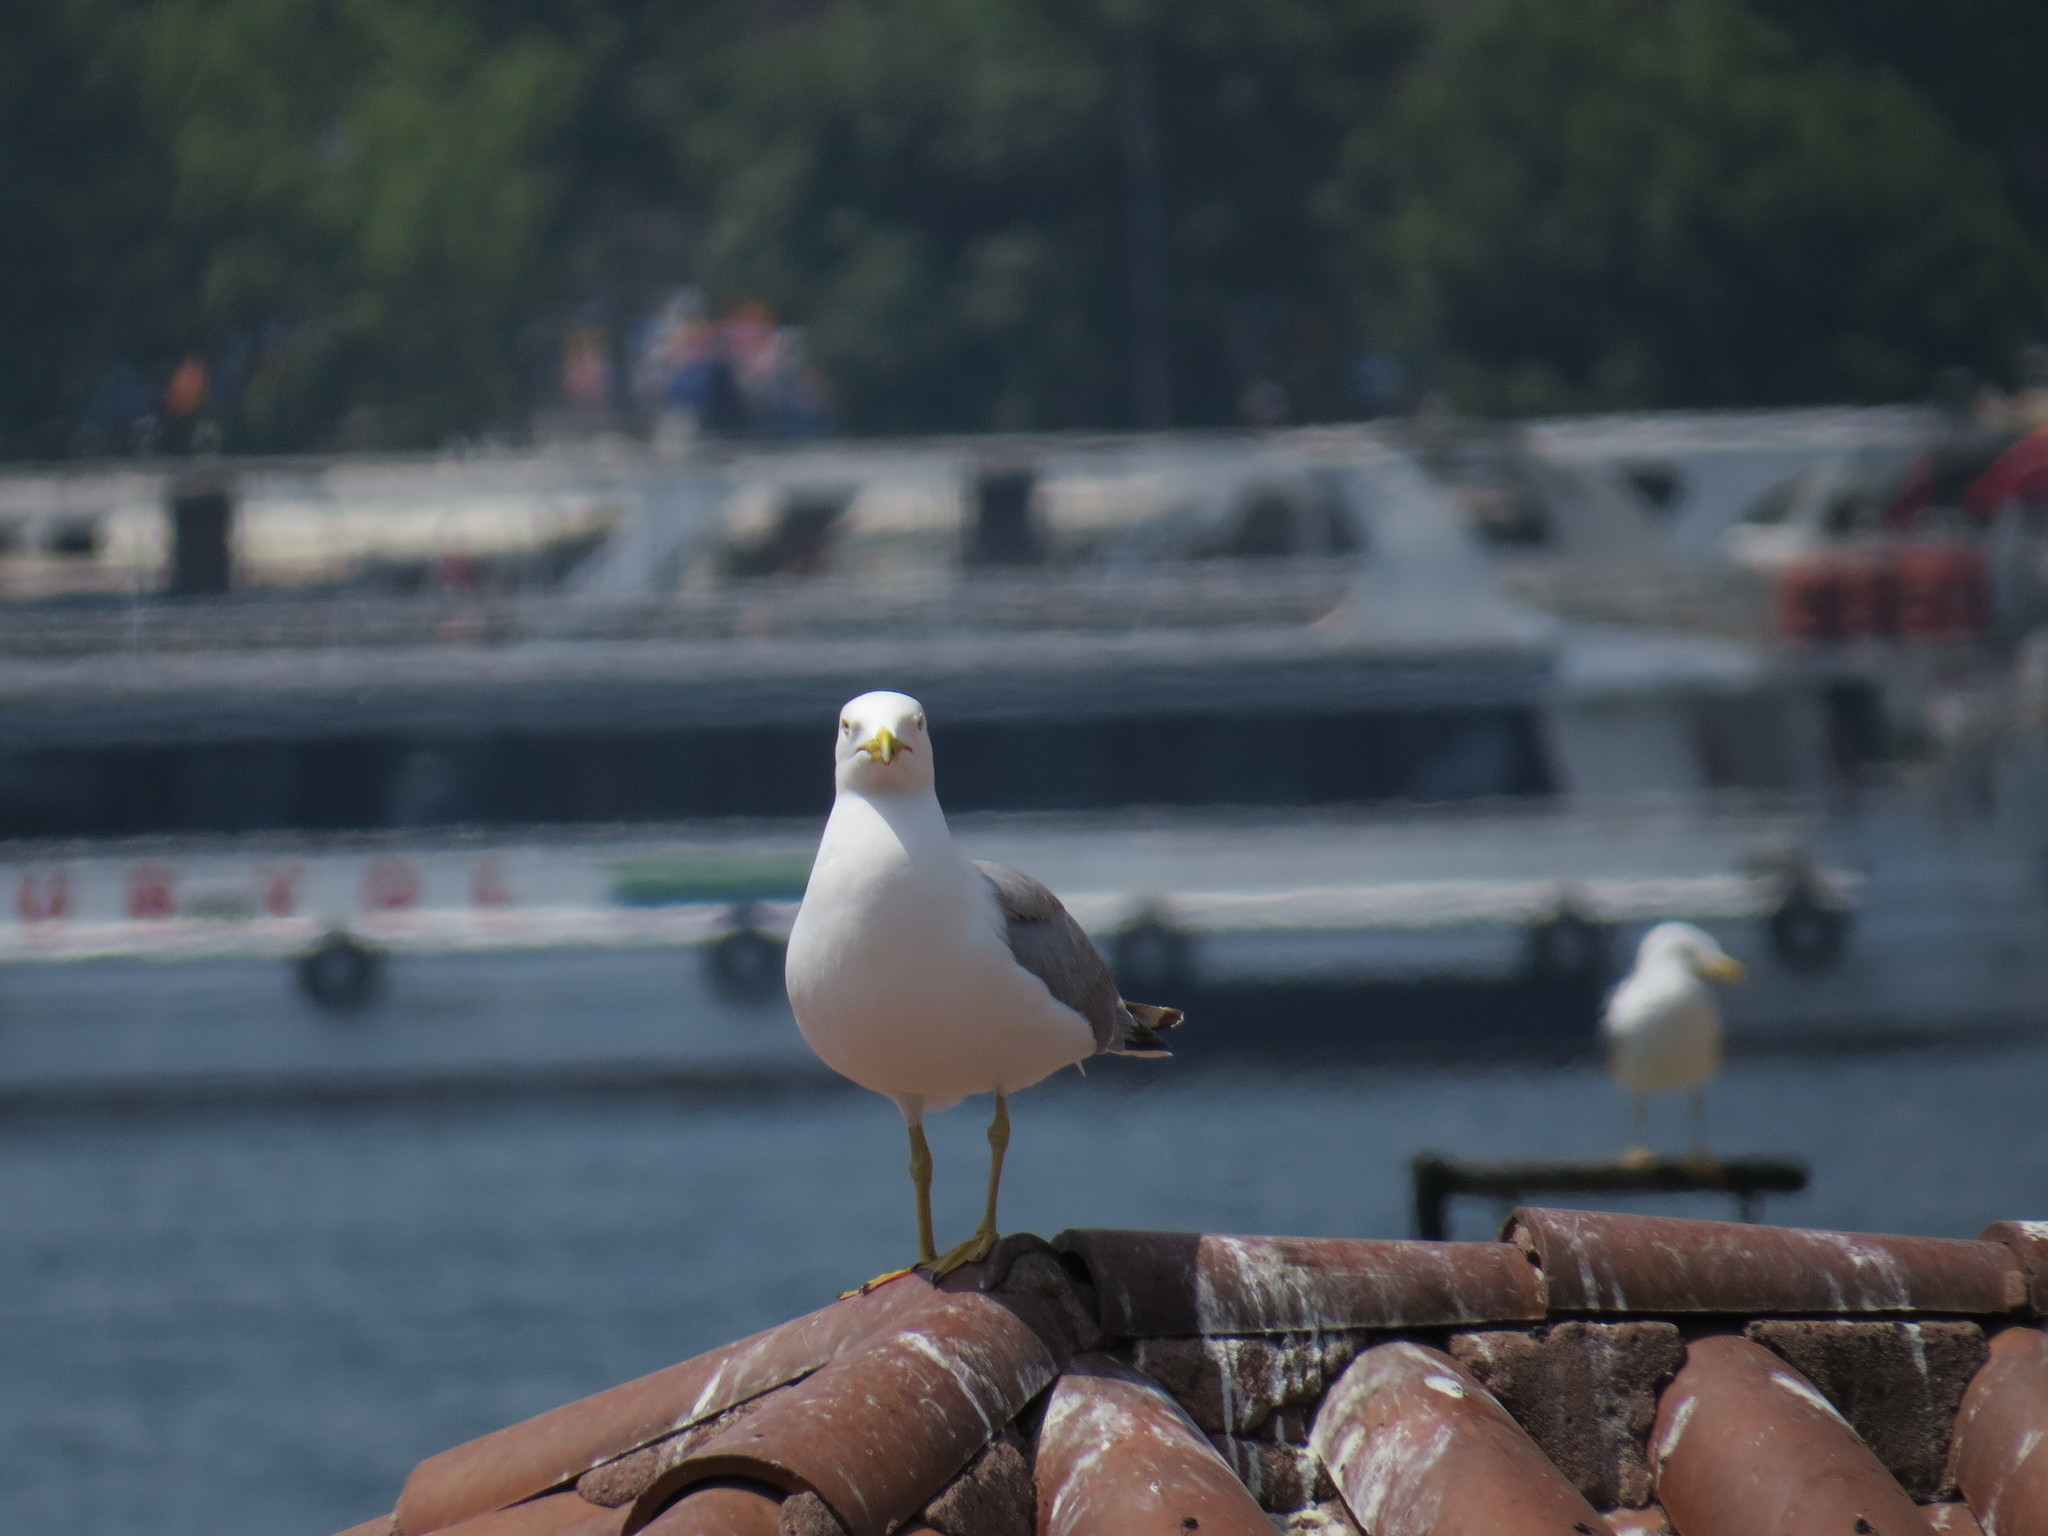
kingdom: Animalia
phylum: Chordata
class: Aves
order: Charadriiformes
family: Laridae
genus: Larus
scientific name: Larus michahellis
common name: Yellow-legged gull
